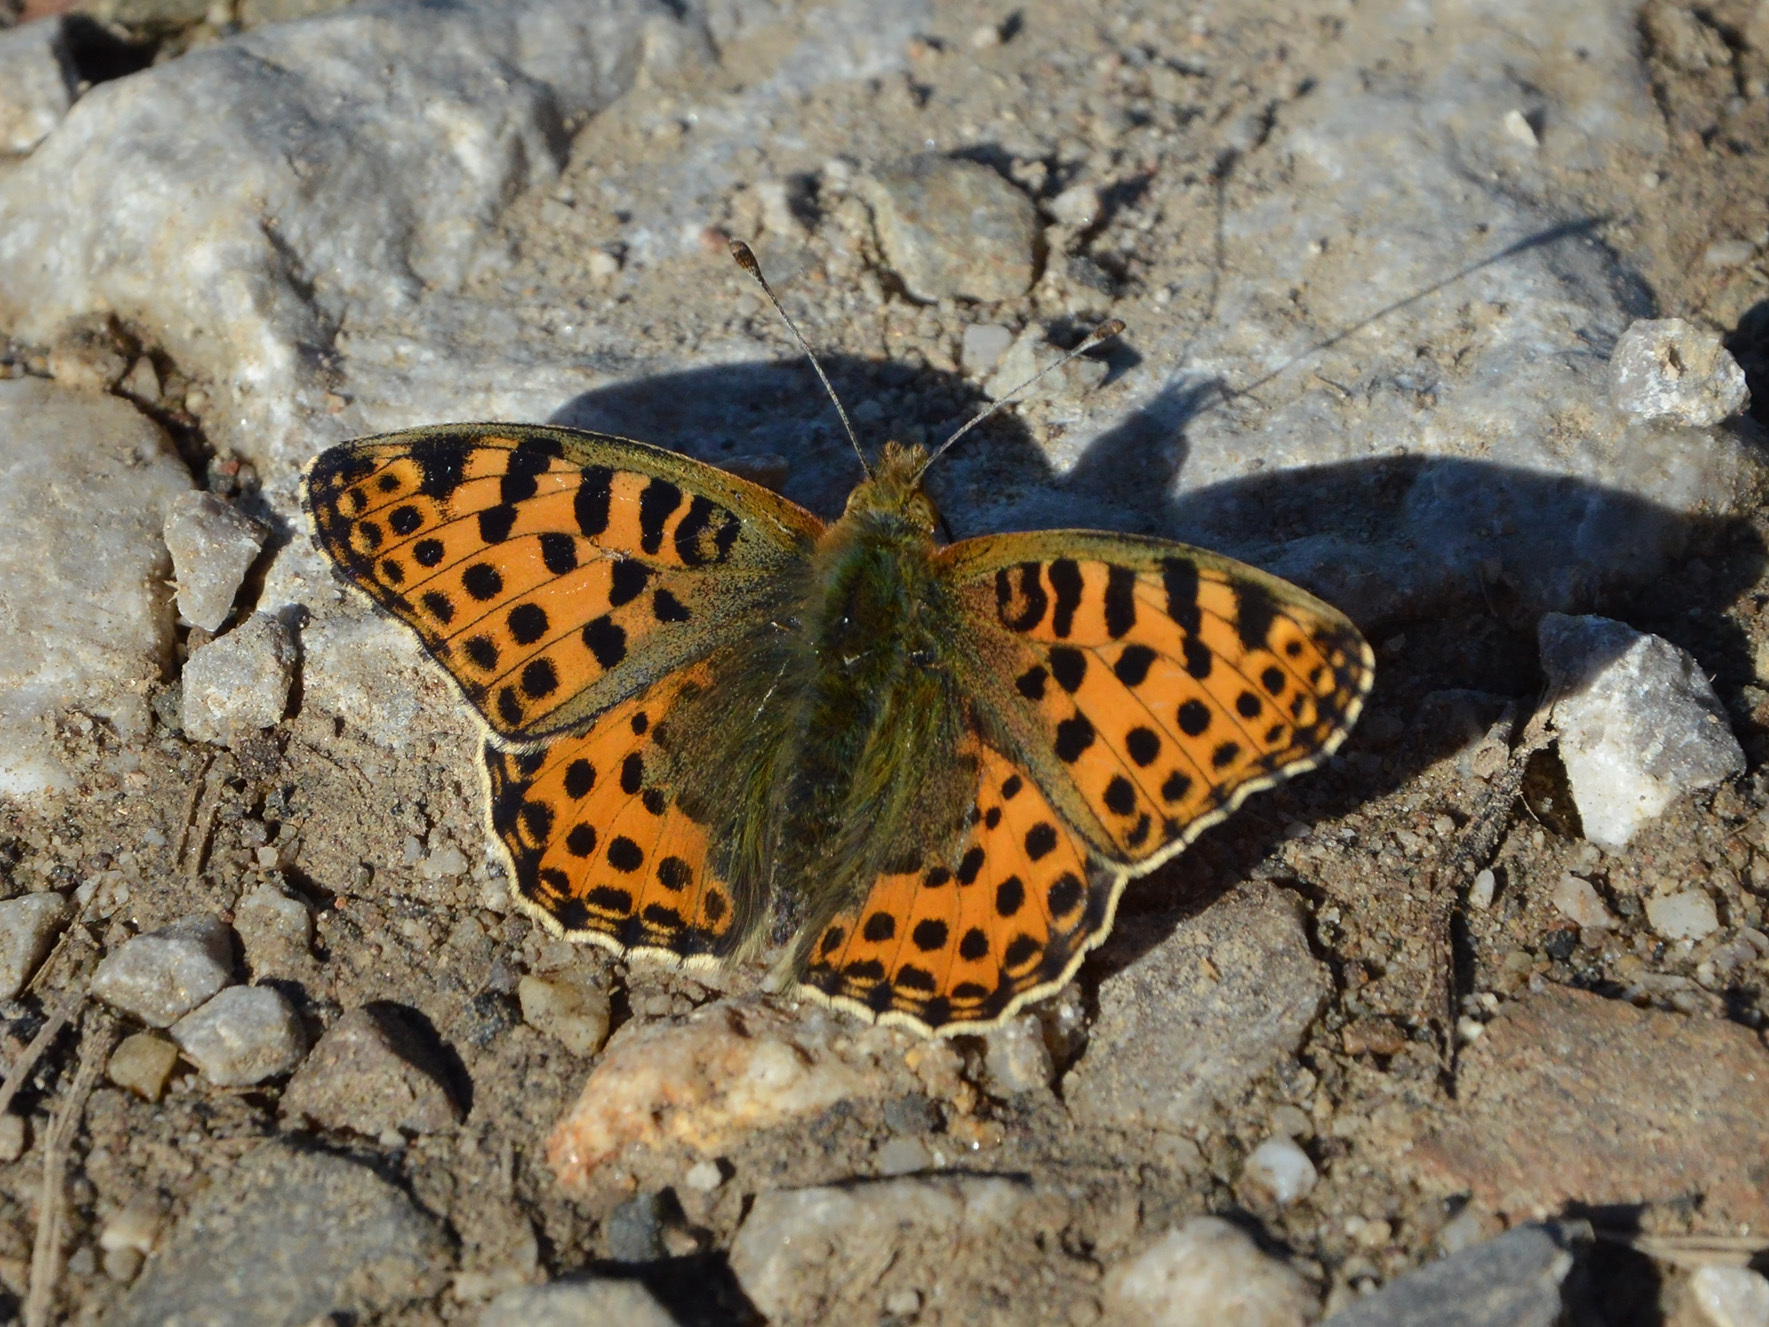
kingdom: Animalia
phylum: Arthropoda
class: Insecta
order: Lepidoptera
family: Nymphalidae
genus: Issoria
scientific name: Issoria lathonia
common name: Queen of spain fritillary
